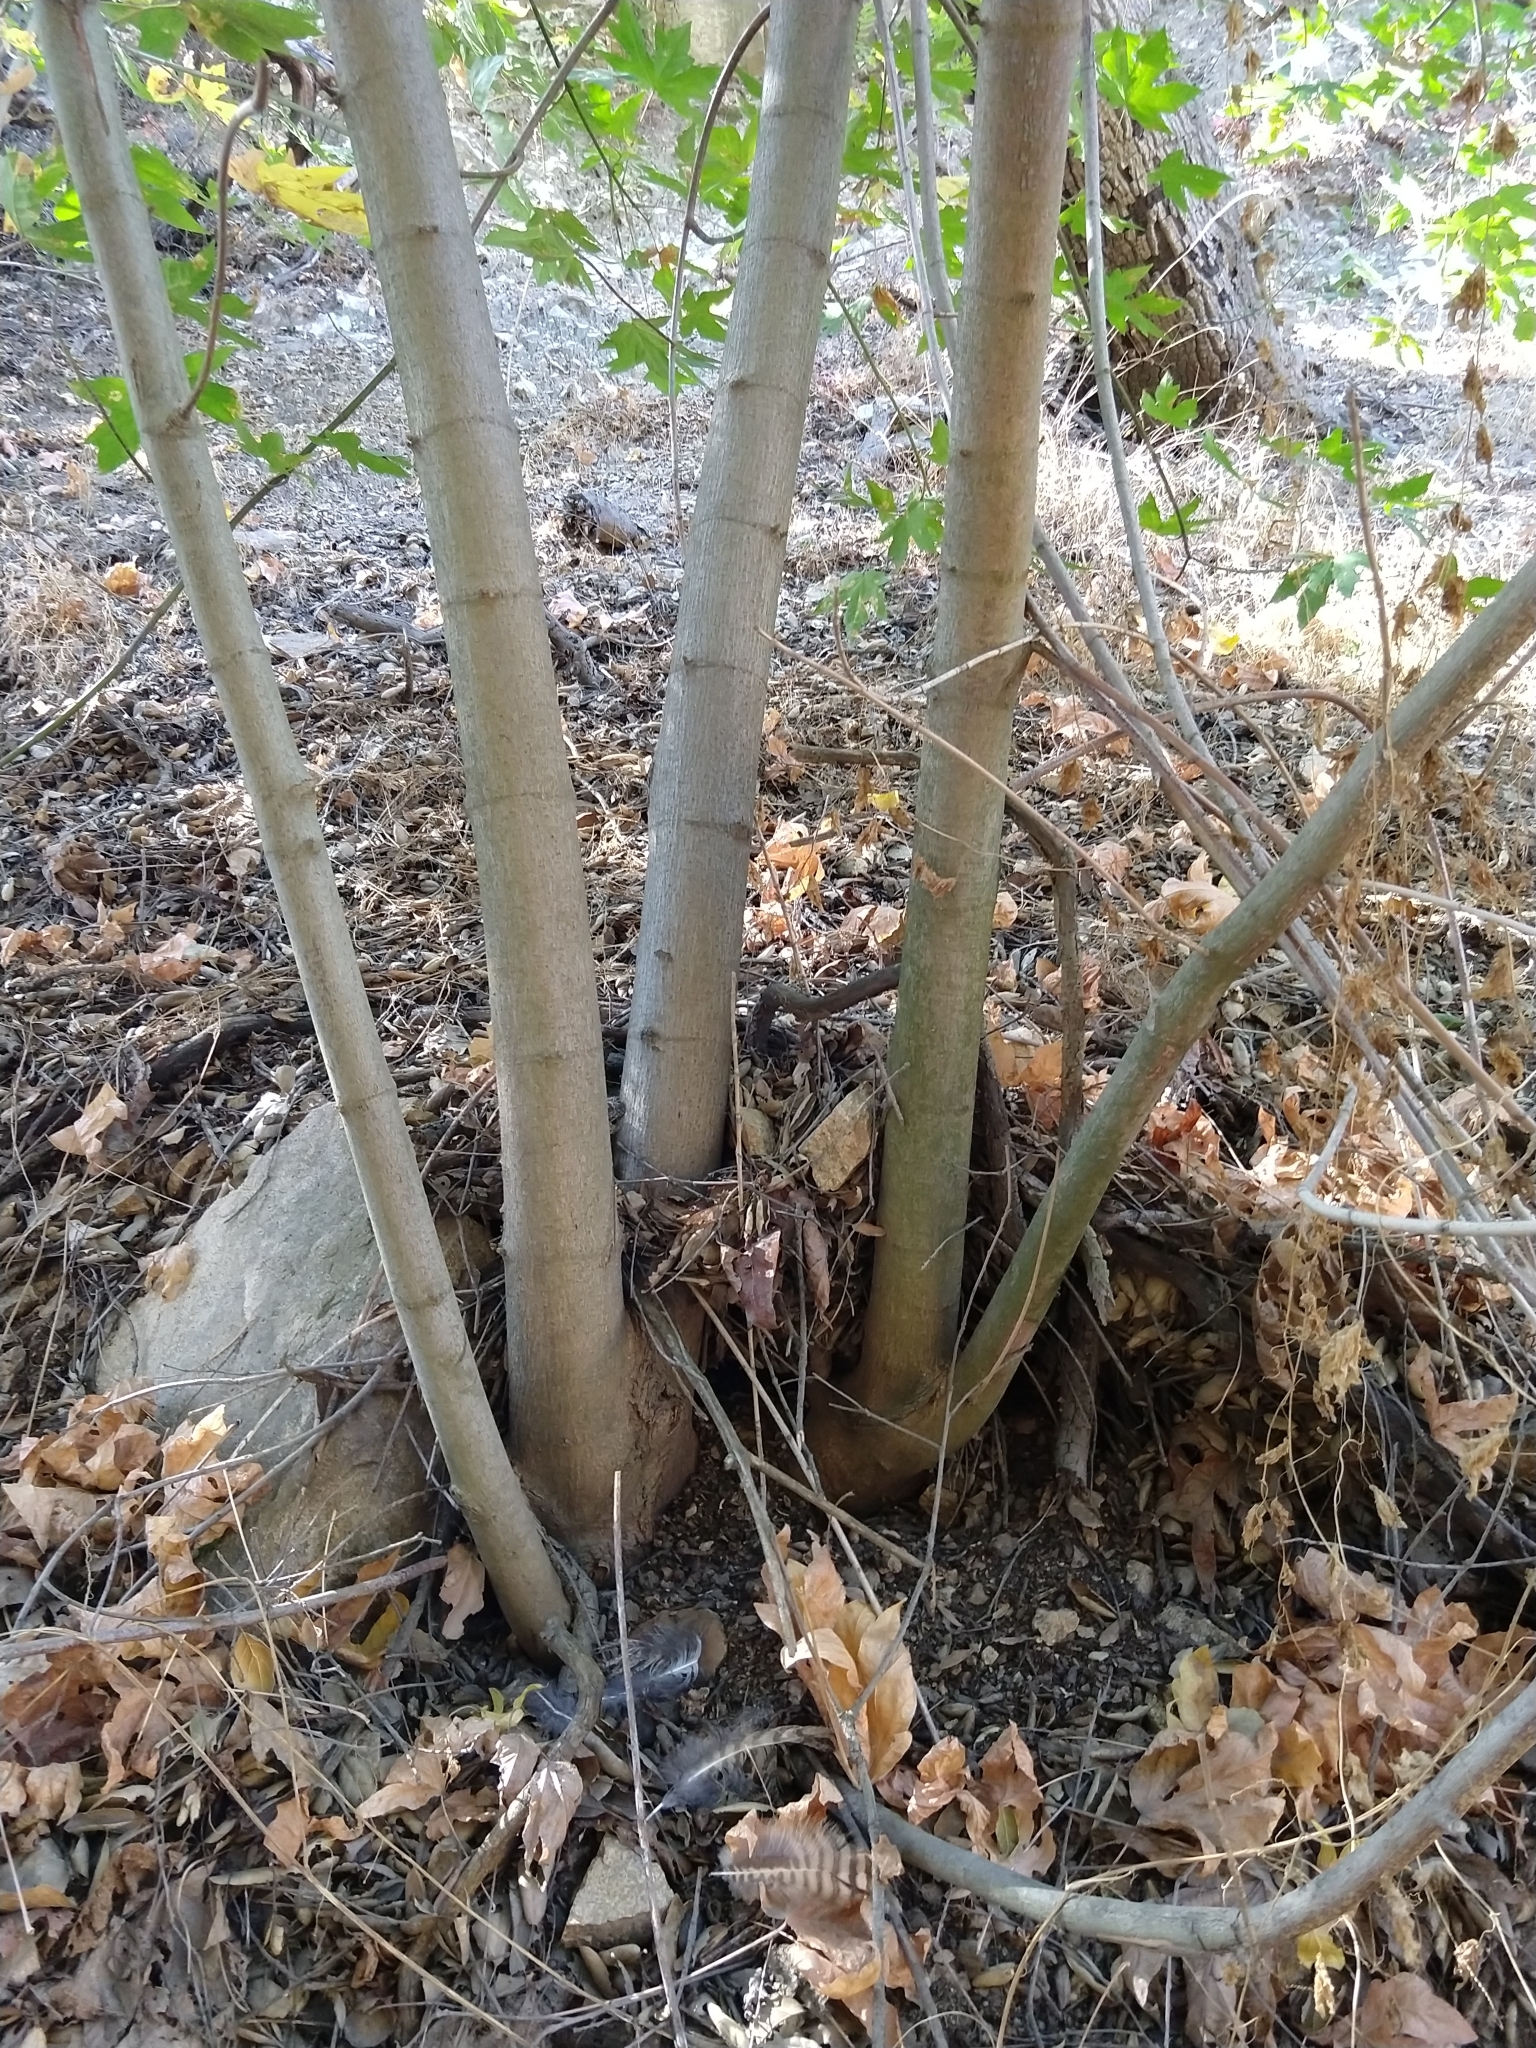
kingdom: Plantae
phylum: Tracheophyta
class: Magnoliopsida
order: Sapindales
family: Sapindaceae
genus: Acer
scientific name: Acer macrophyllum
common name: Oregon maple
